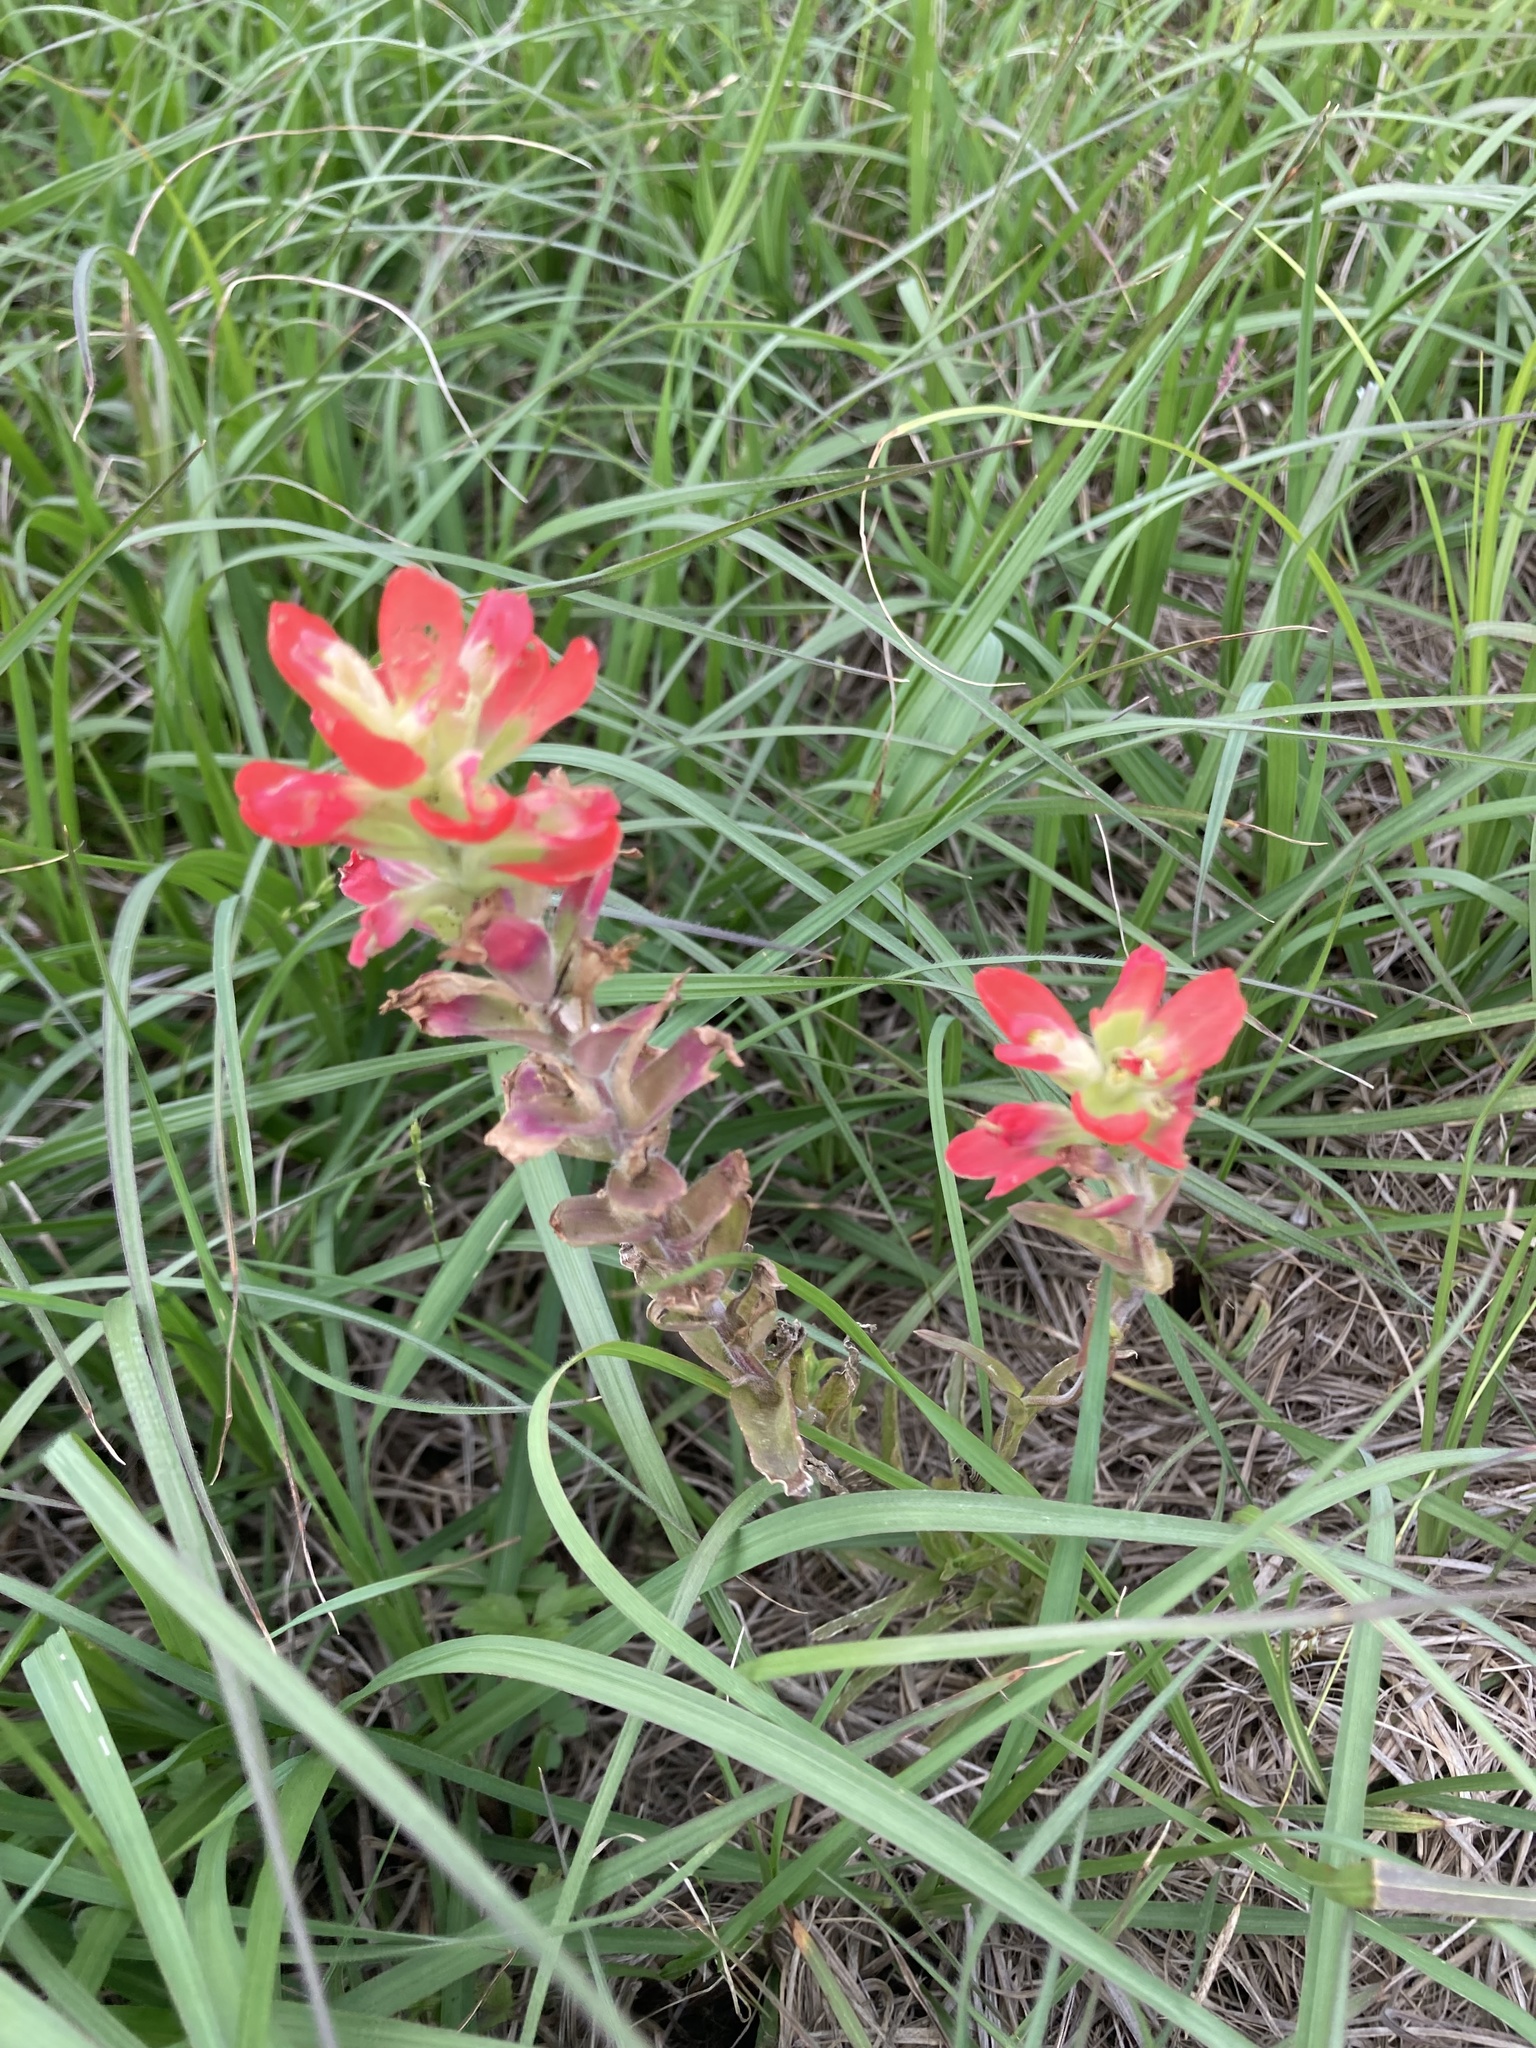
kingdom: Plantae
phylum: Tracheophyta
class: Magnoliopsida
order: Lamiales
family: Orobanchaceae
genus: Castilleja
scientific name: Castilleja indivisa
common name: Texas paintbrush
